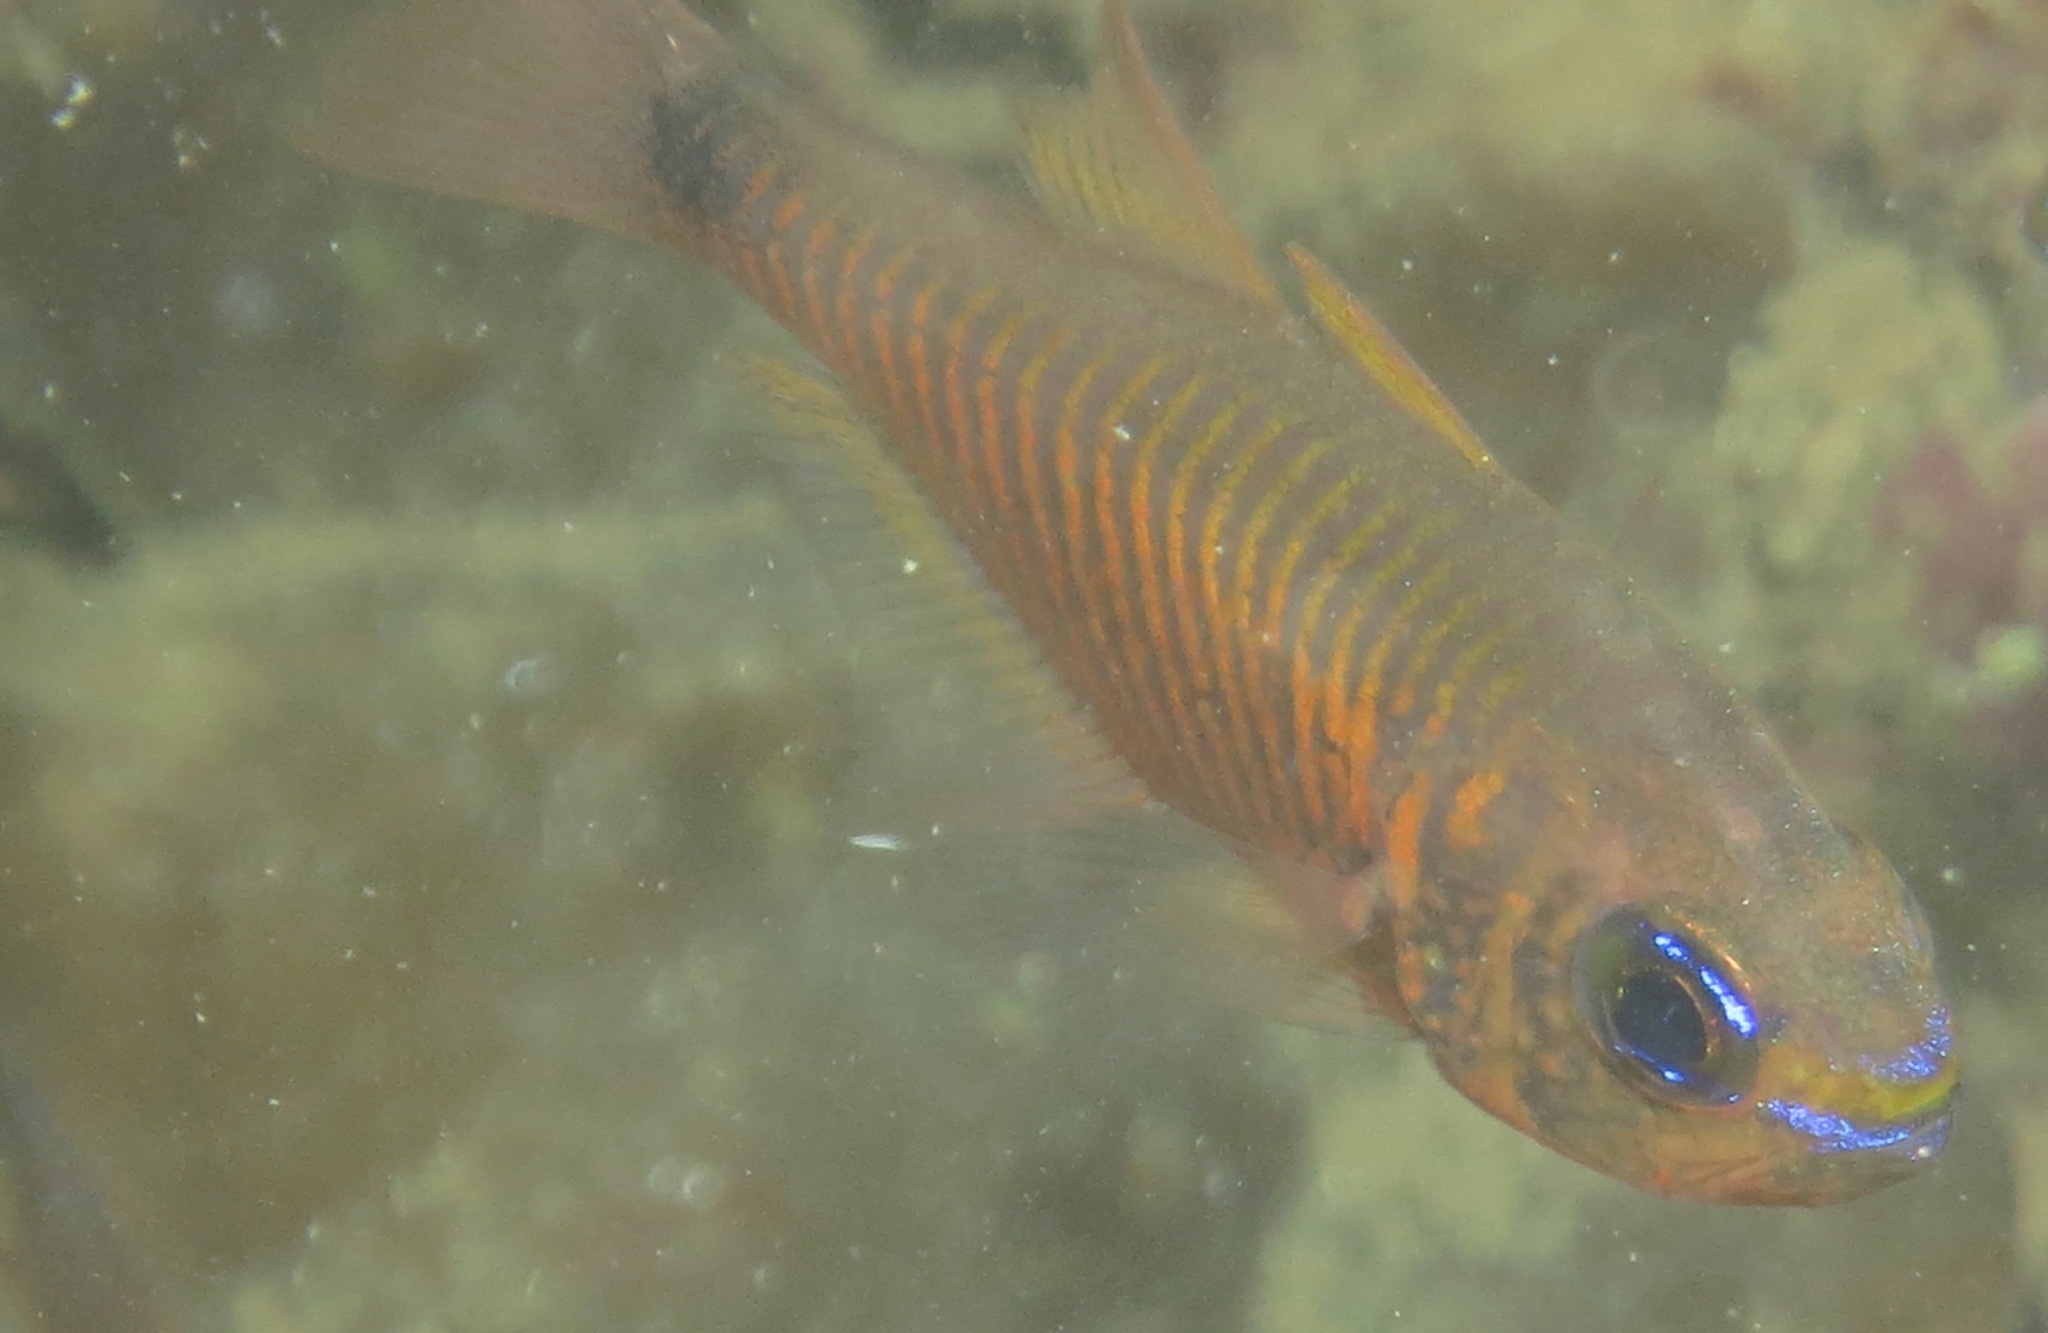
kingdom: Animalia
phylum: Chordata
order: Perciformes
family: Apogonidae
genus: Taeniamia
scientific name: Taeniamia fucata
